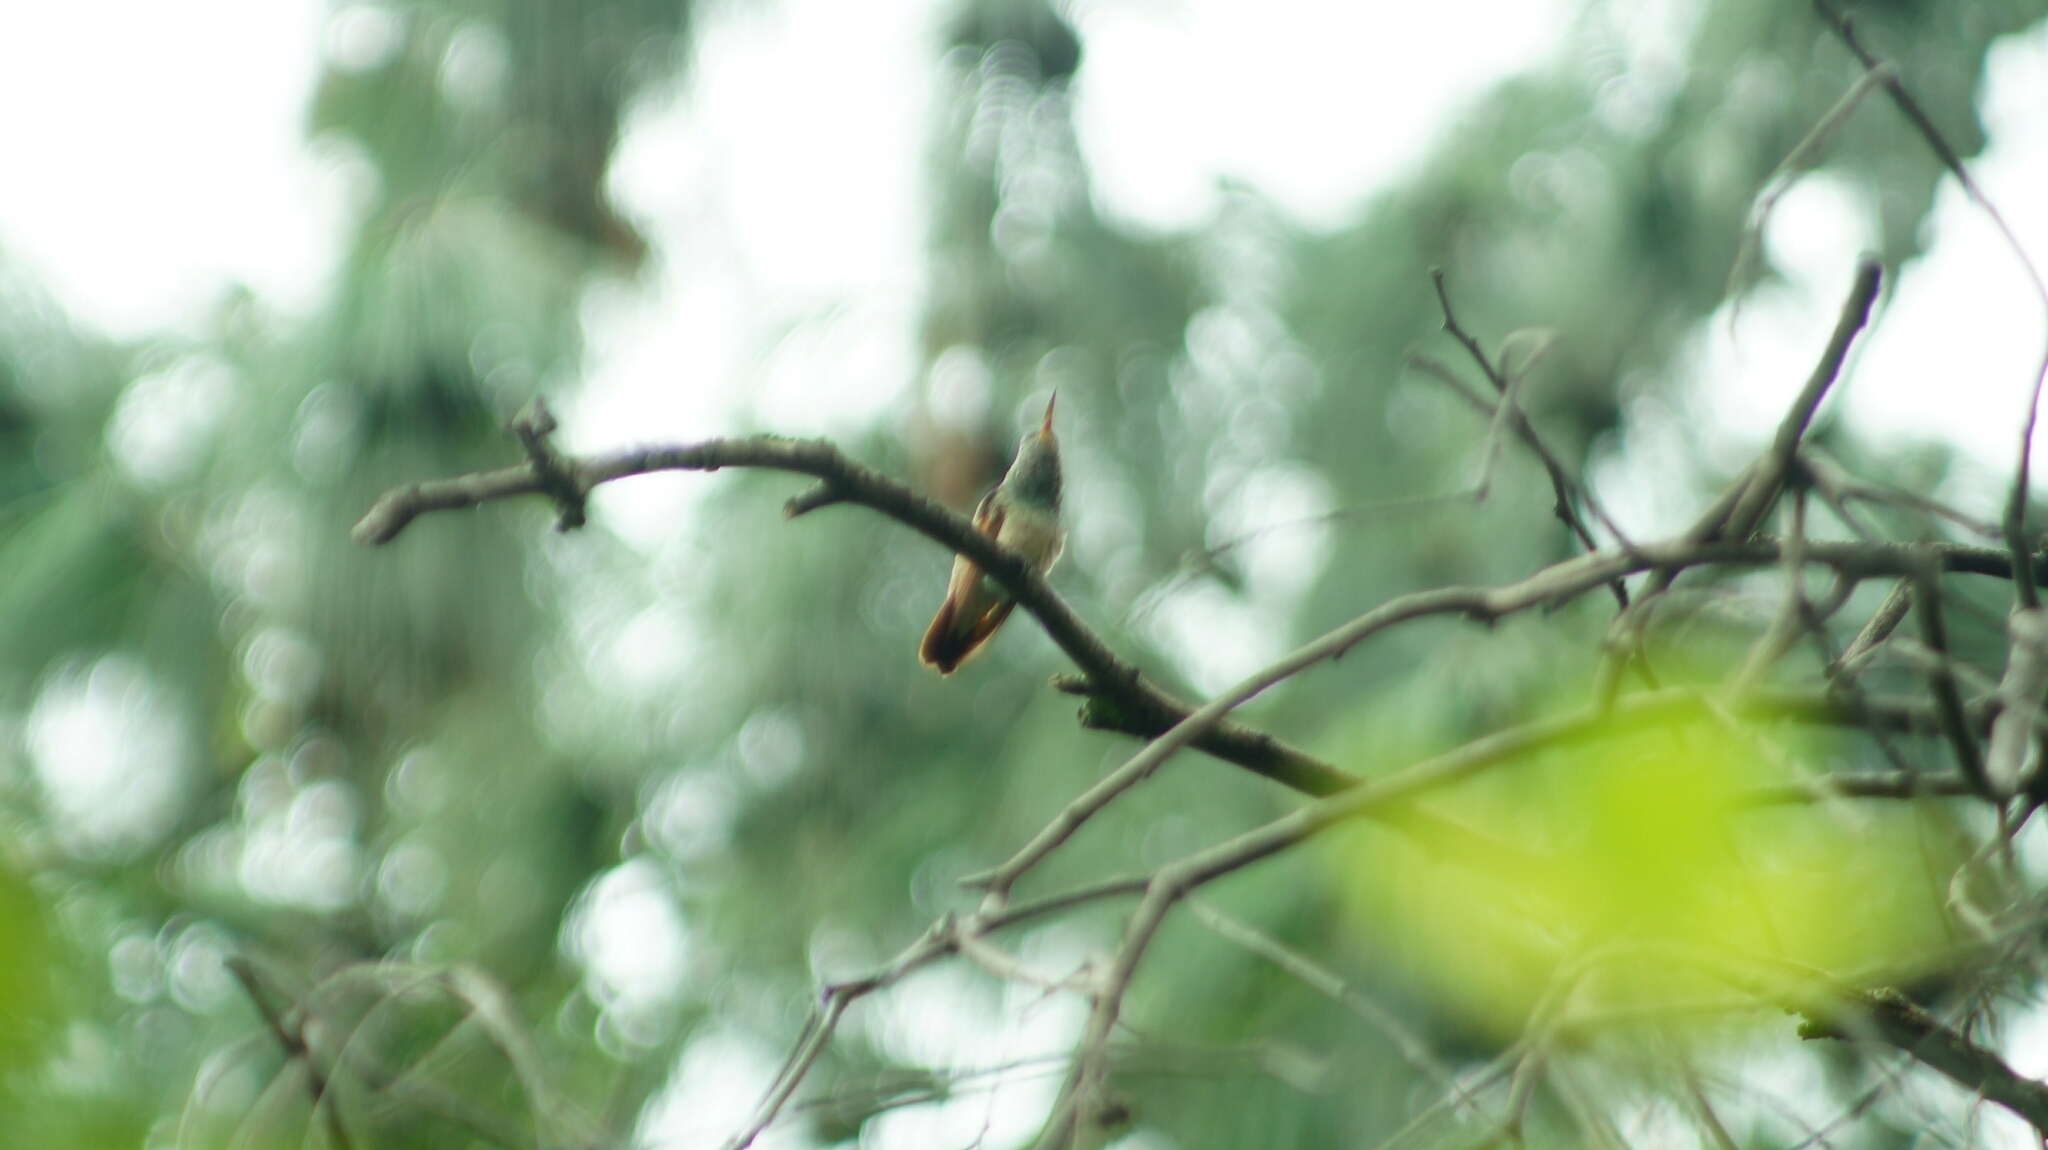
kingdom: Animalia
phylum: Chordata
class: Aves
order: Apodiformes
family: Trochilidae
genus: Saucerottia
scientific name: Saucerottia beryllina
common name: Berylline hummingbird
